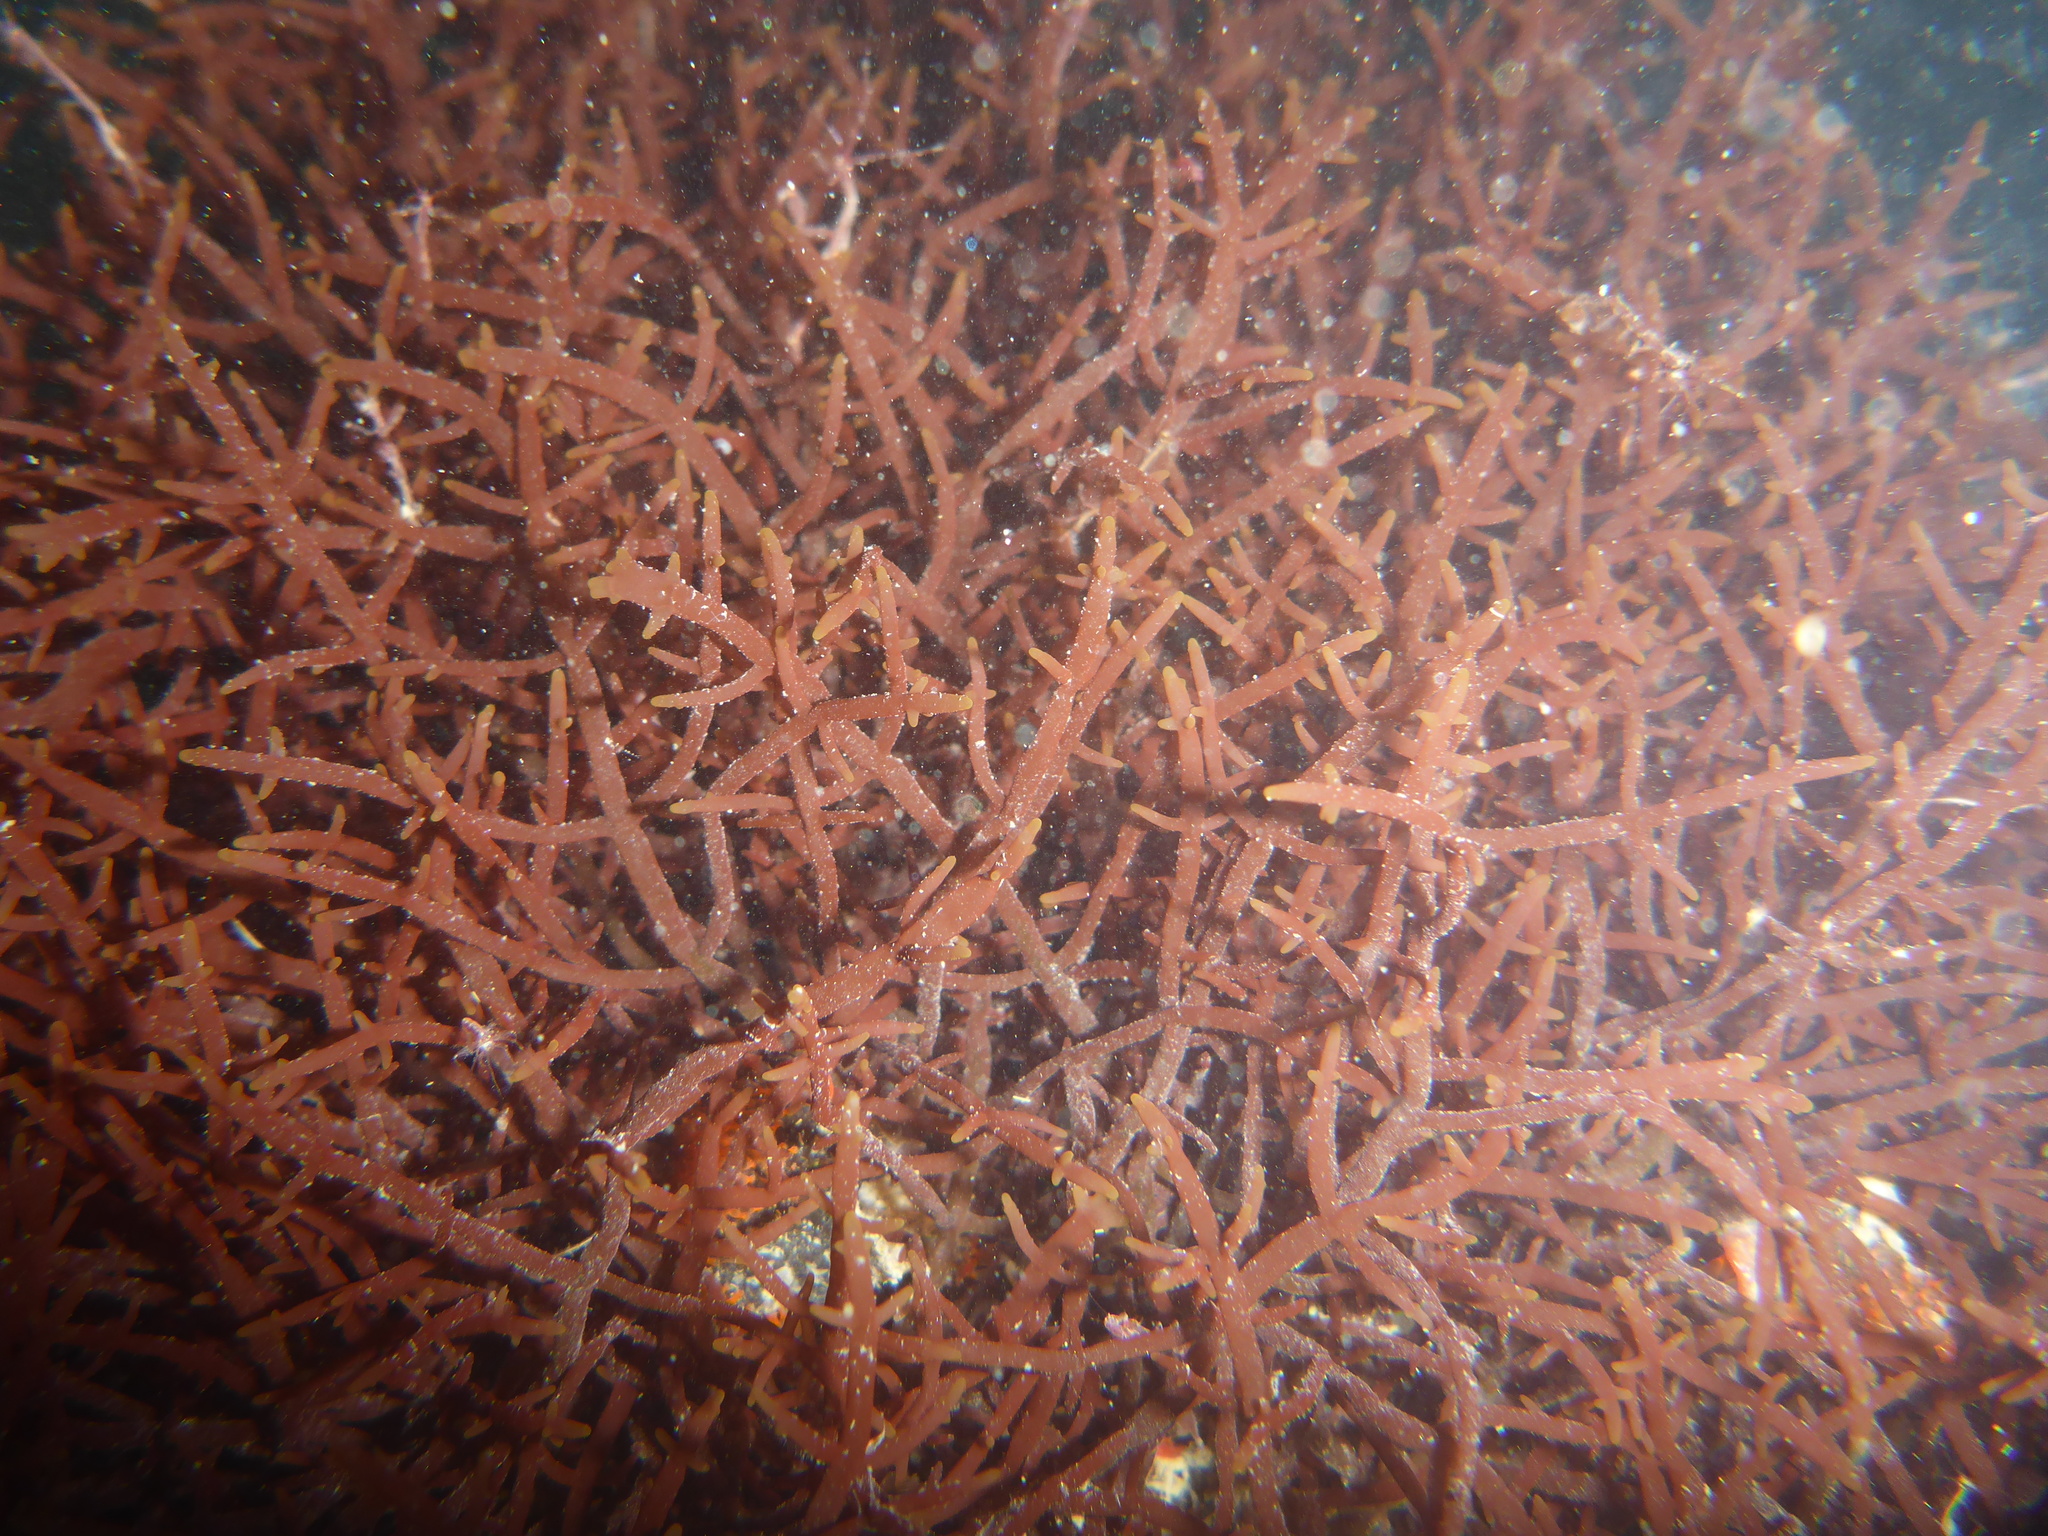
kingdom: Plantae
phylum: Rhodophyta
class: Florideophyceae
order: Gigartinales
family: Solieriaceae
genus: Sarcodiotheca
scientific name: Sarcodiotheca gaudichaudii
